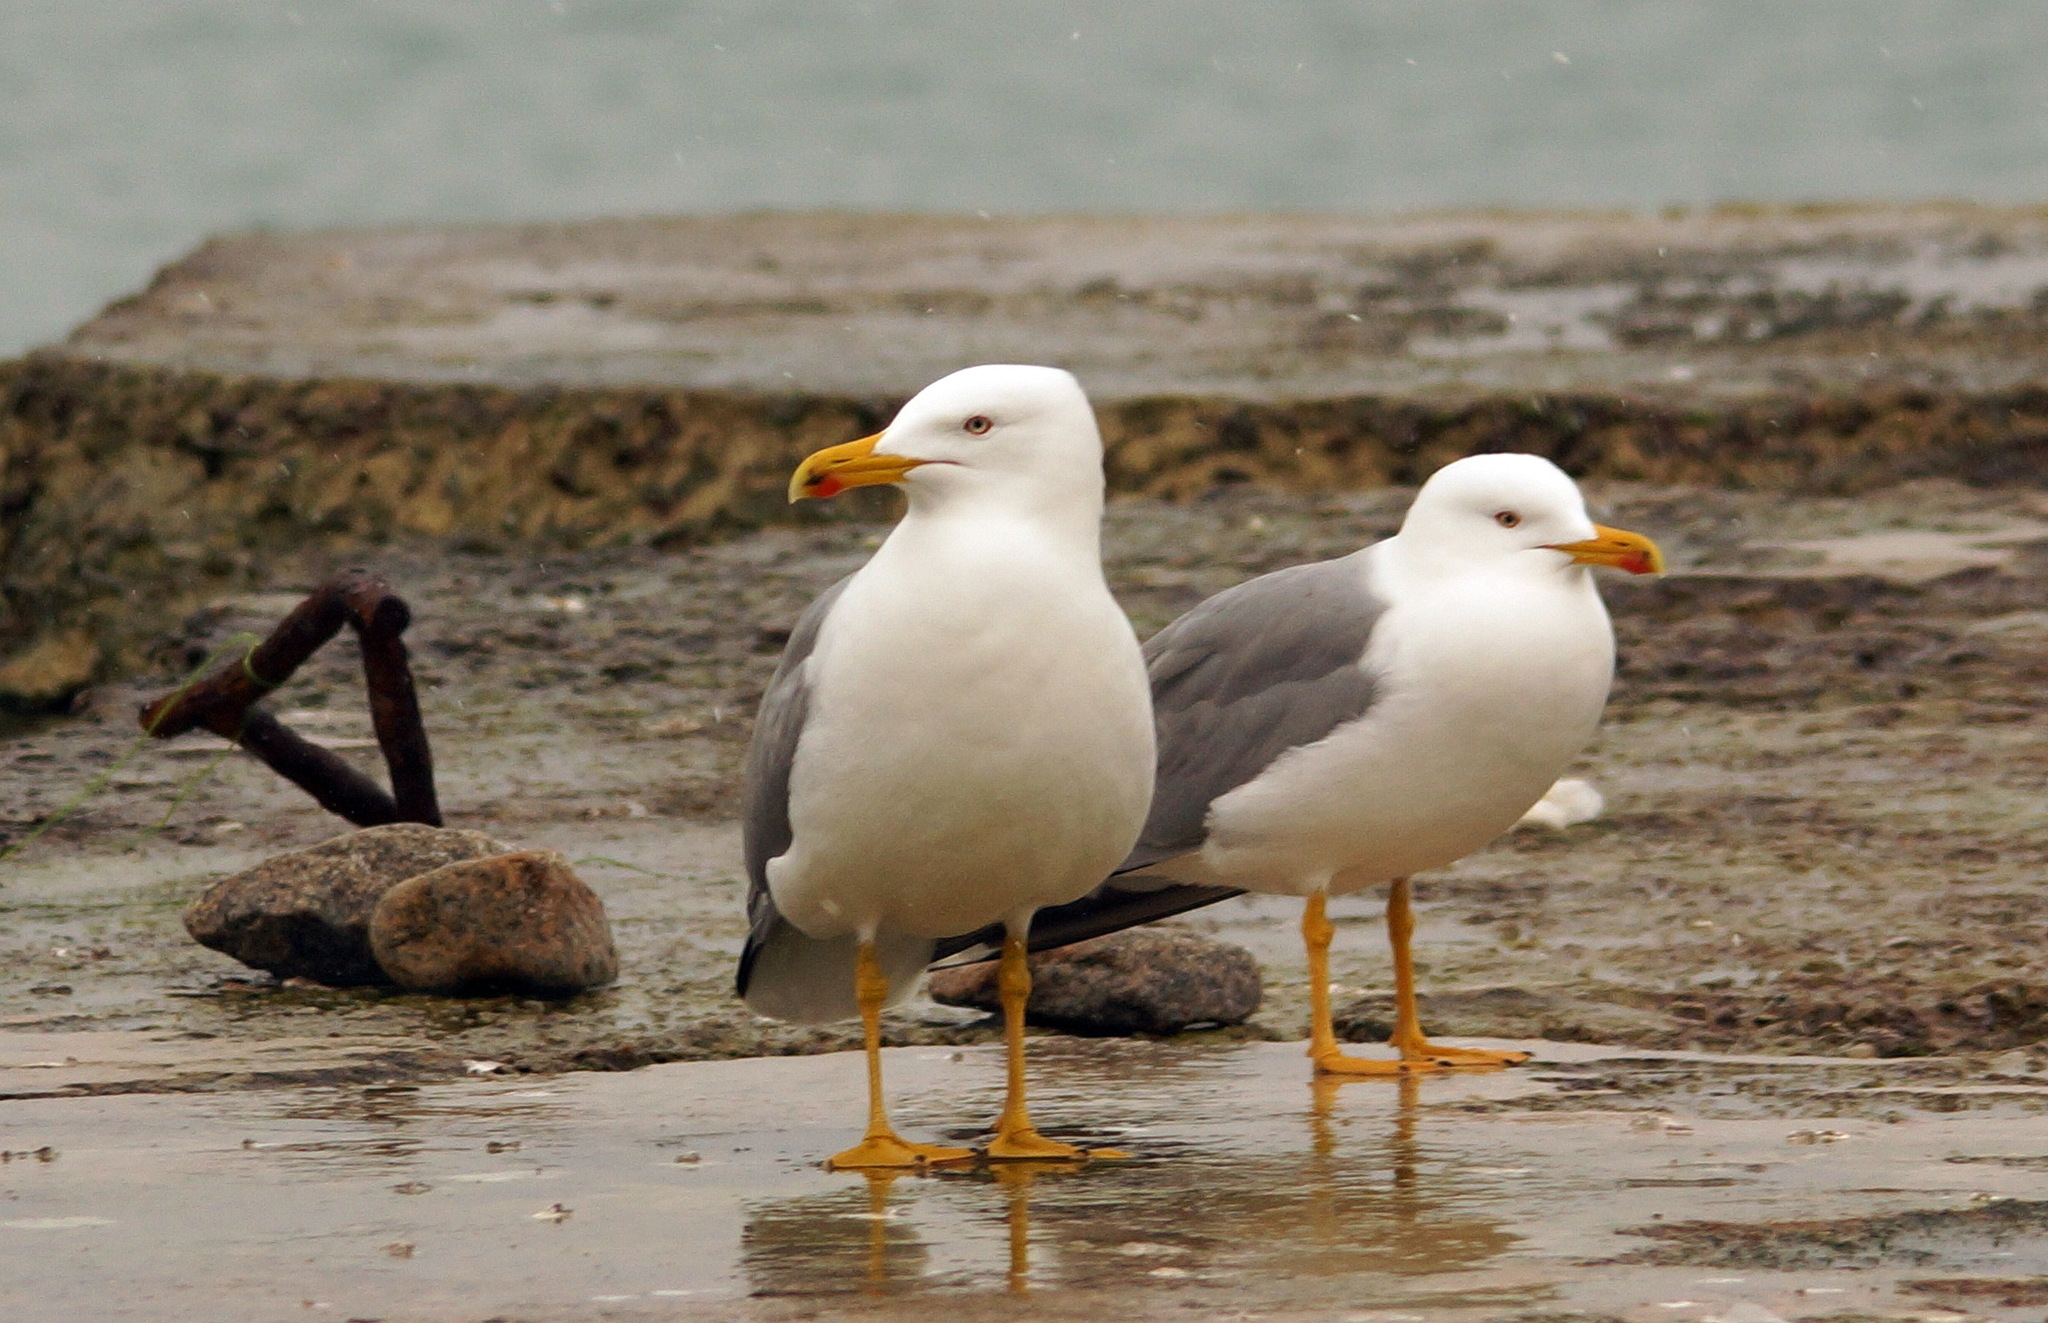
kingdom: Animalia
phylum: Chordata
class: Aves
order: Charadriiformes
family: Laridae
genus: Larus
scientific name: Larus michahellis
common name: Yellow-legged gull
